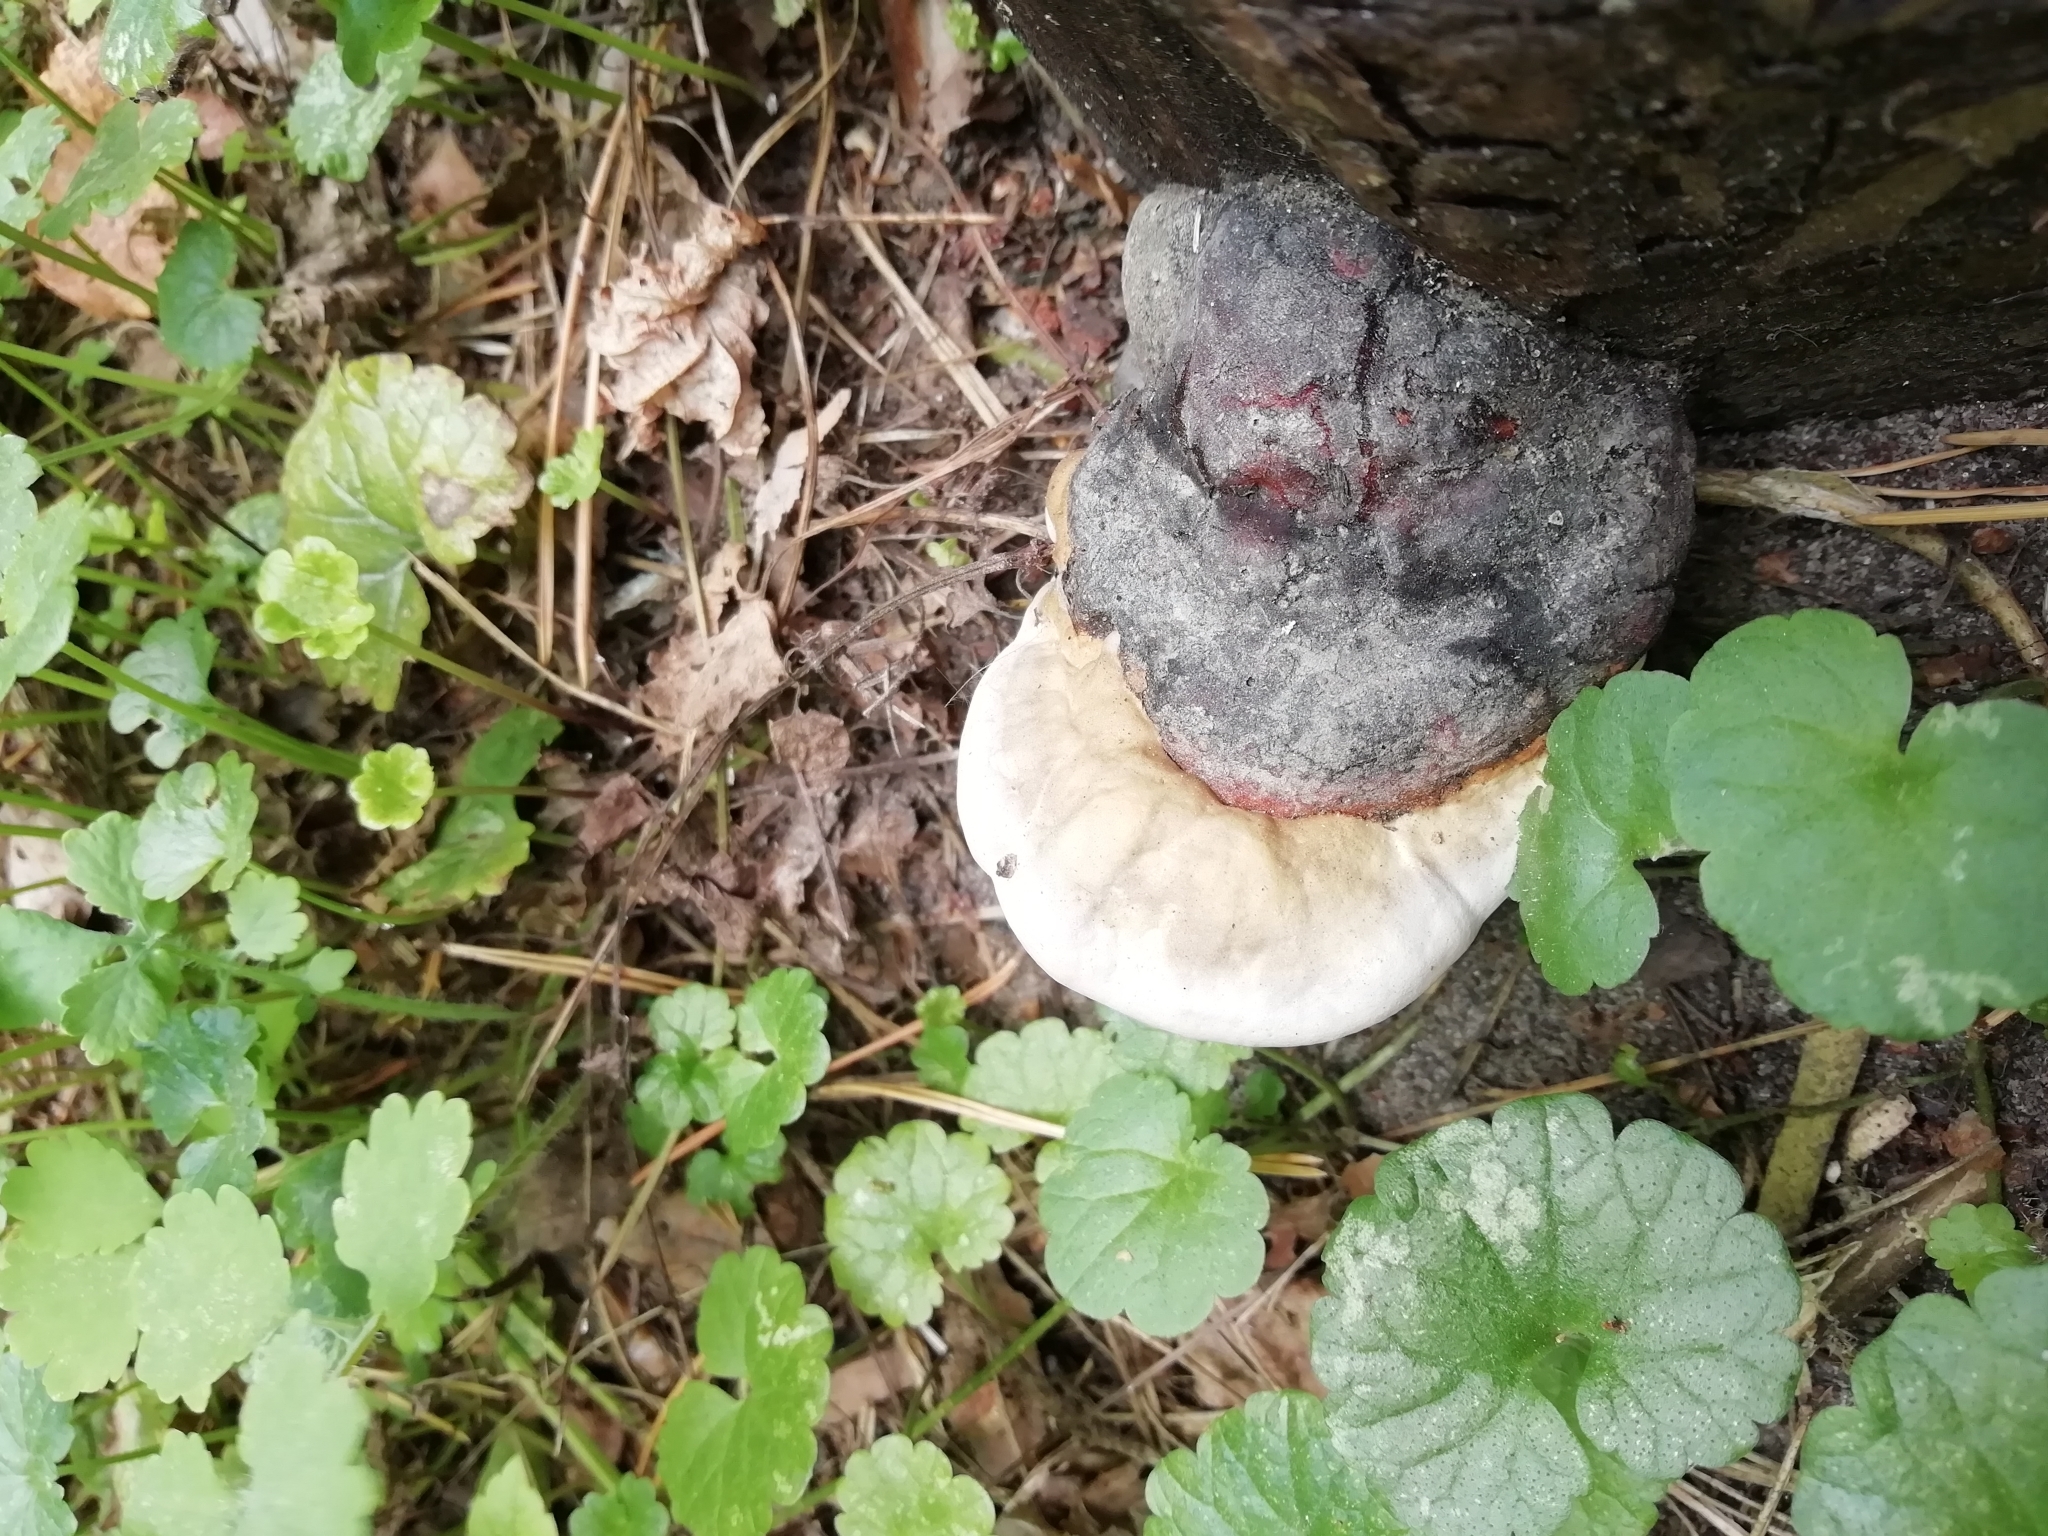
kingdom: Fungi
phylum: Basidiomycota
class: Agaricomycetes
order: Polyporales
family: Fomitopsidaceae
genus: Fomitopsis
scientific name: Fomitopsis pinicola
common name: Red-belted bracket
